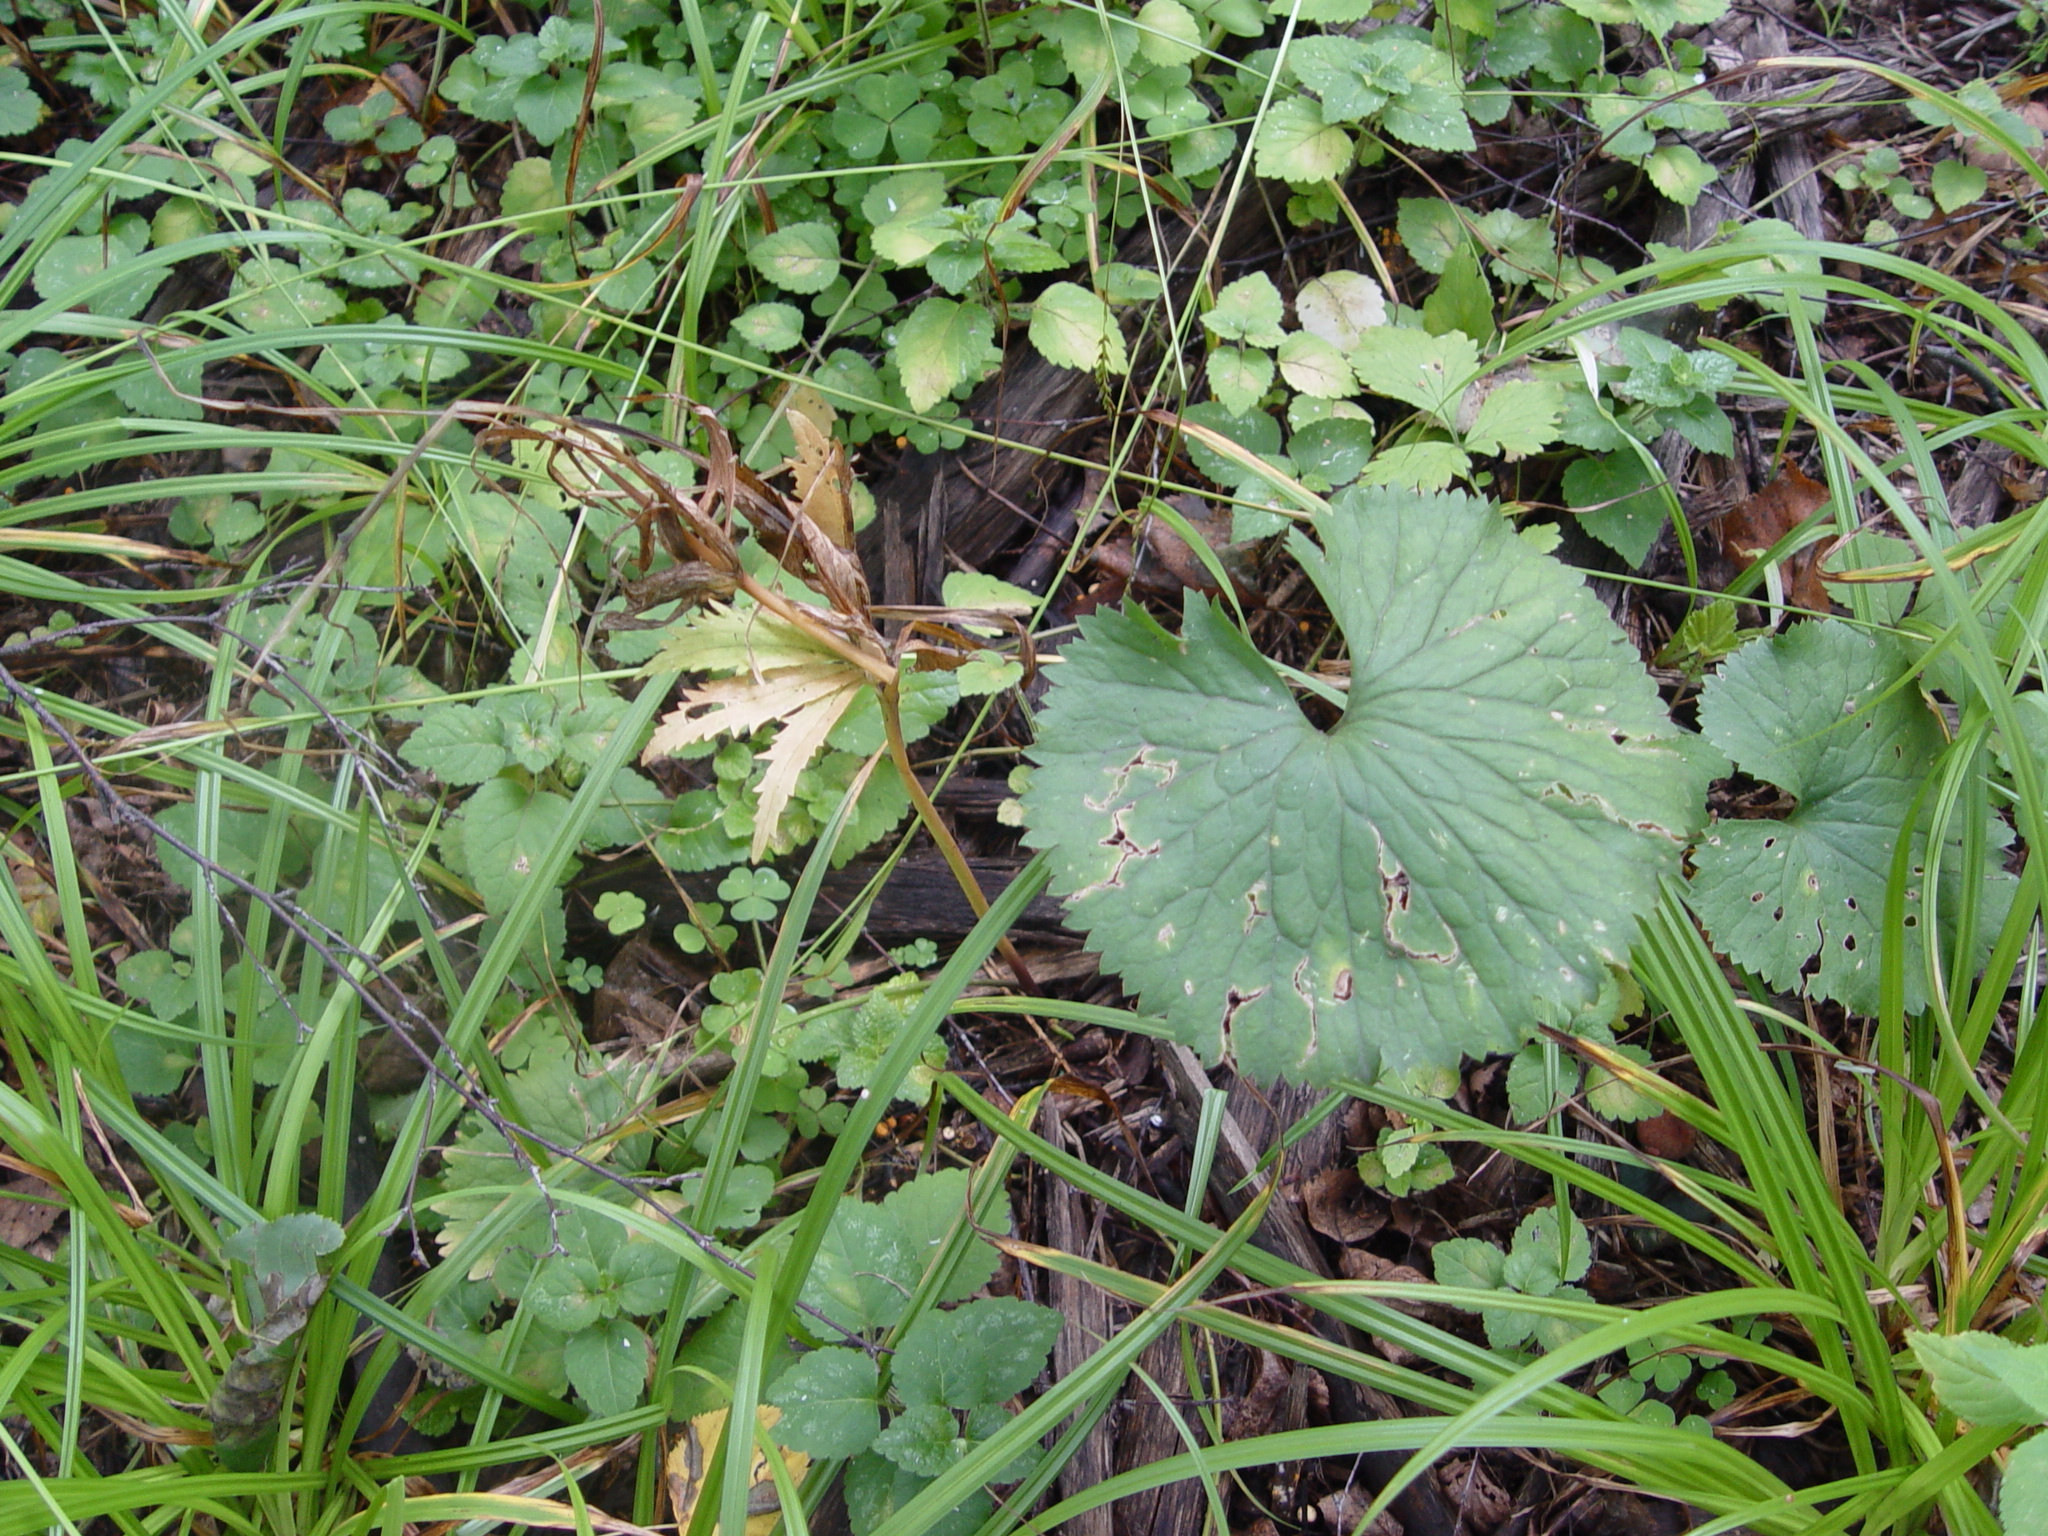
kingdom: Plantae
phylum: Tracheophyta
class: Magnoliopsida
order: Ranunculales
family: Ranunculaceae
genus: Ranunculus
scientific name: Ranunculus cassubicus
